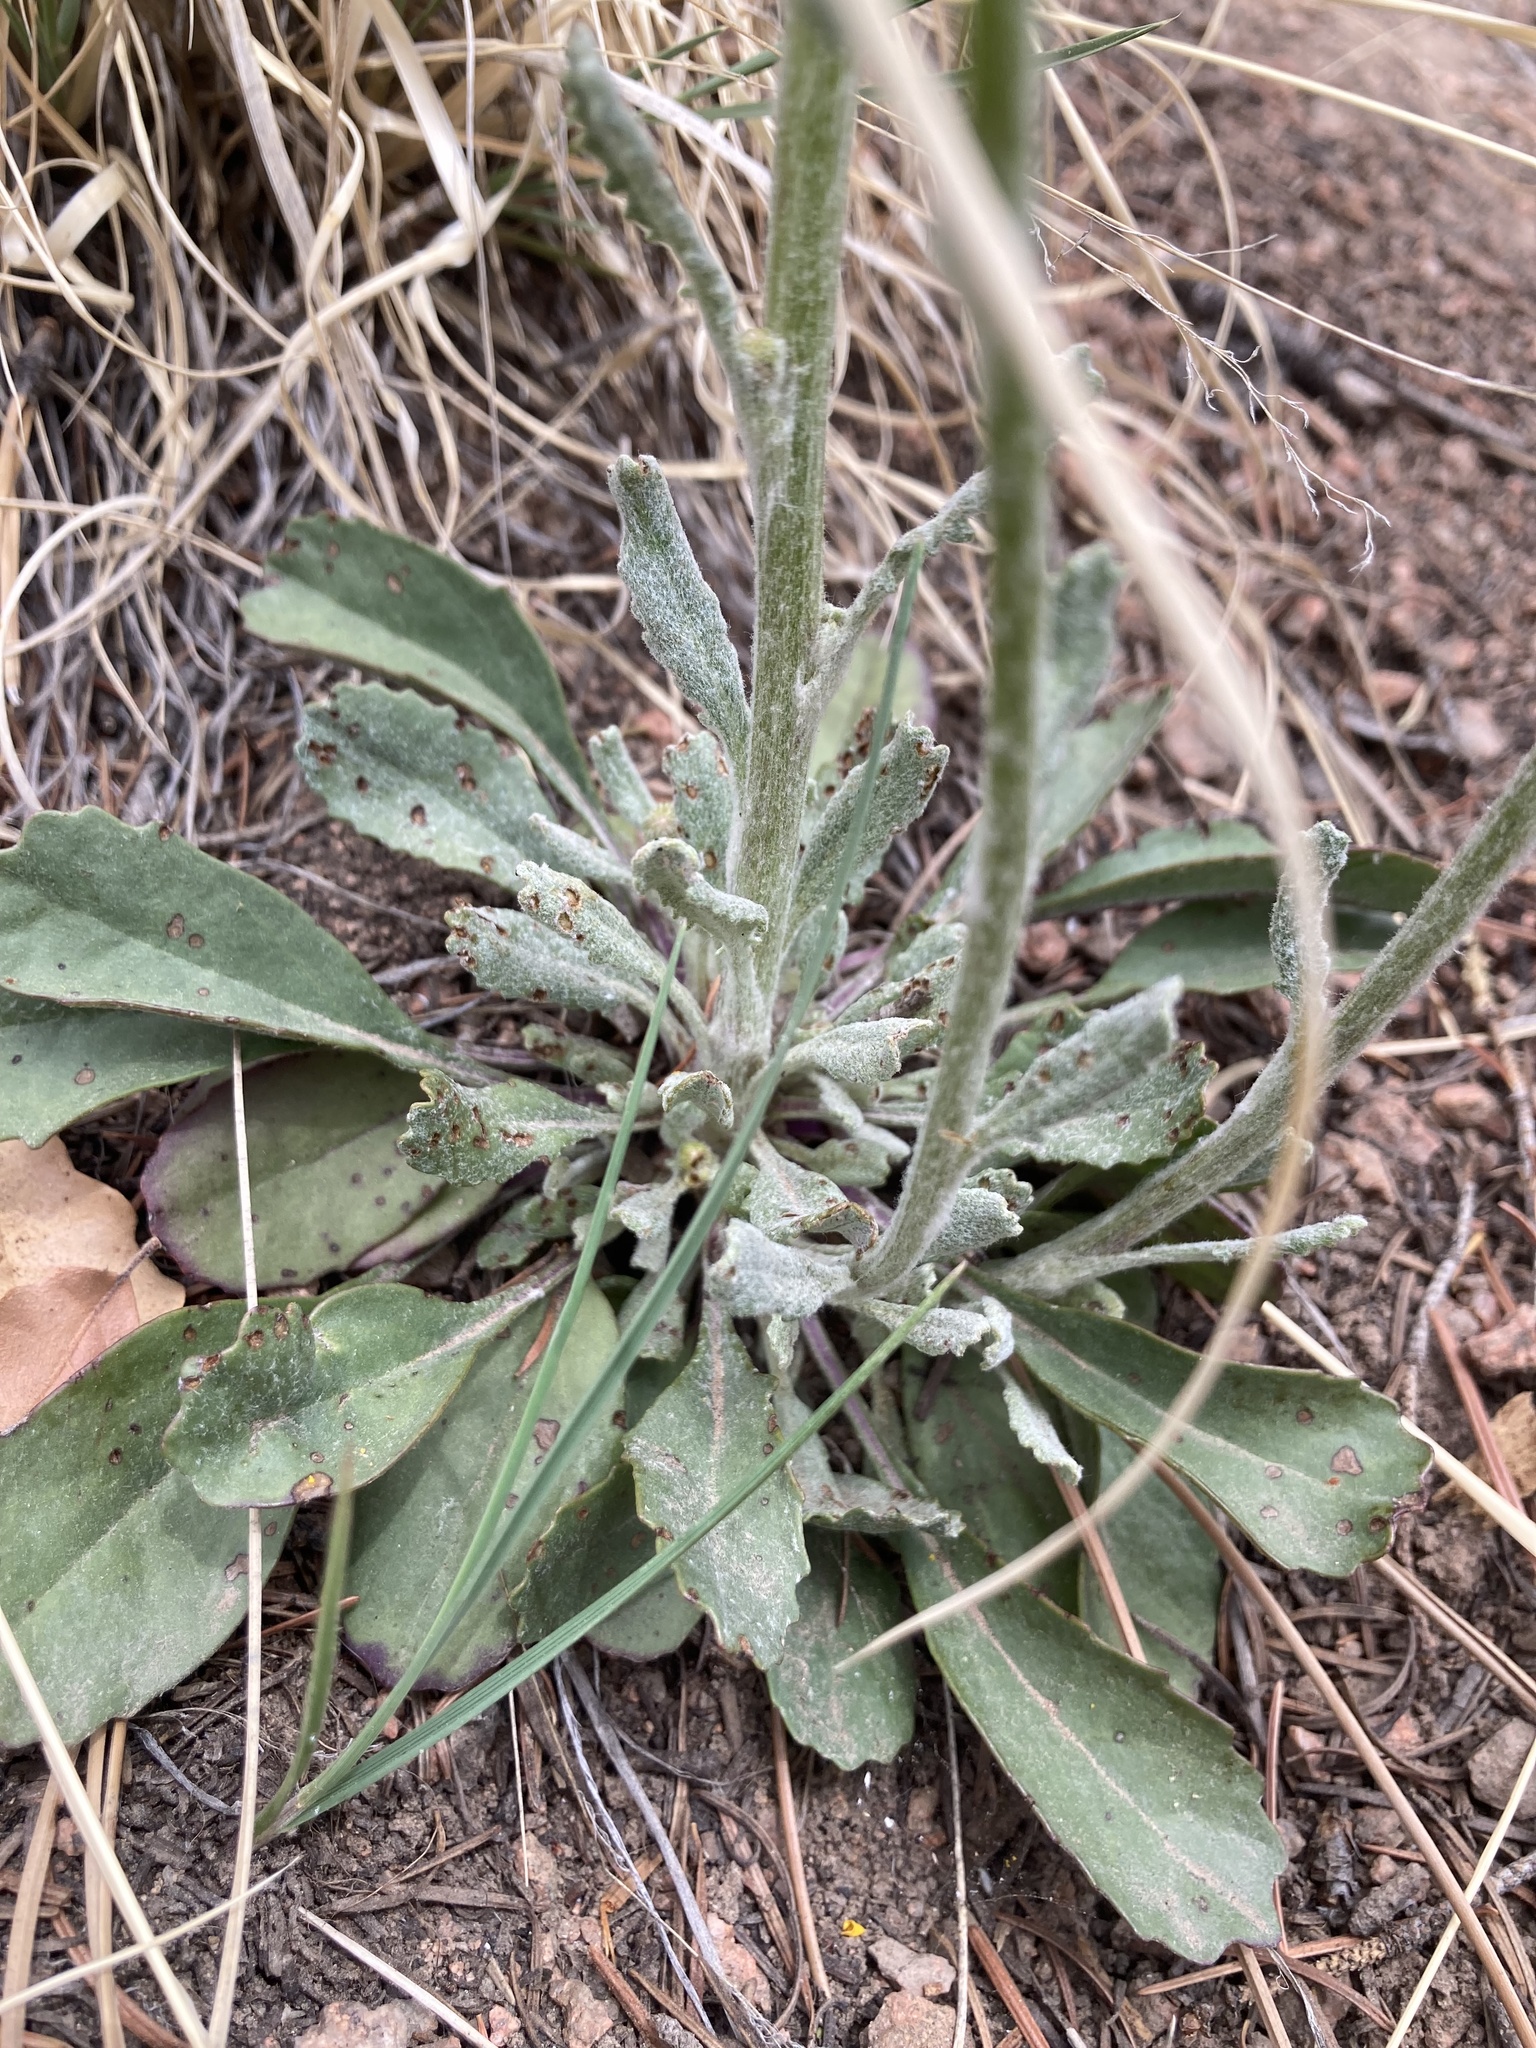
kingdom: Plantae
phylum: Tracheophyta
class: Magnoliopsida
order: Asterales
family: Asteraceae
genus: Packera
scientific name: Packera neomexicana
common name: New mexico butterweed
